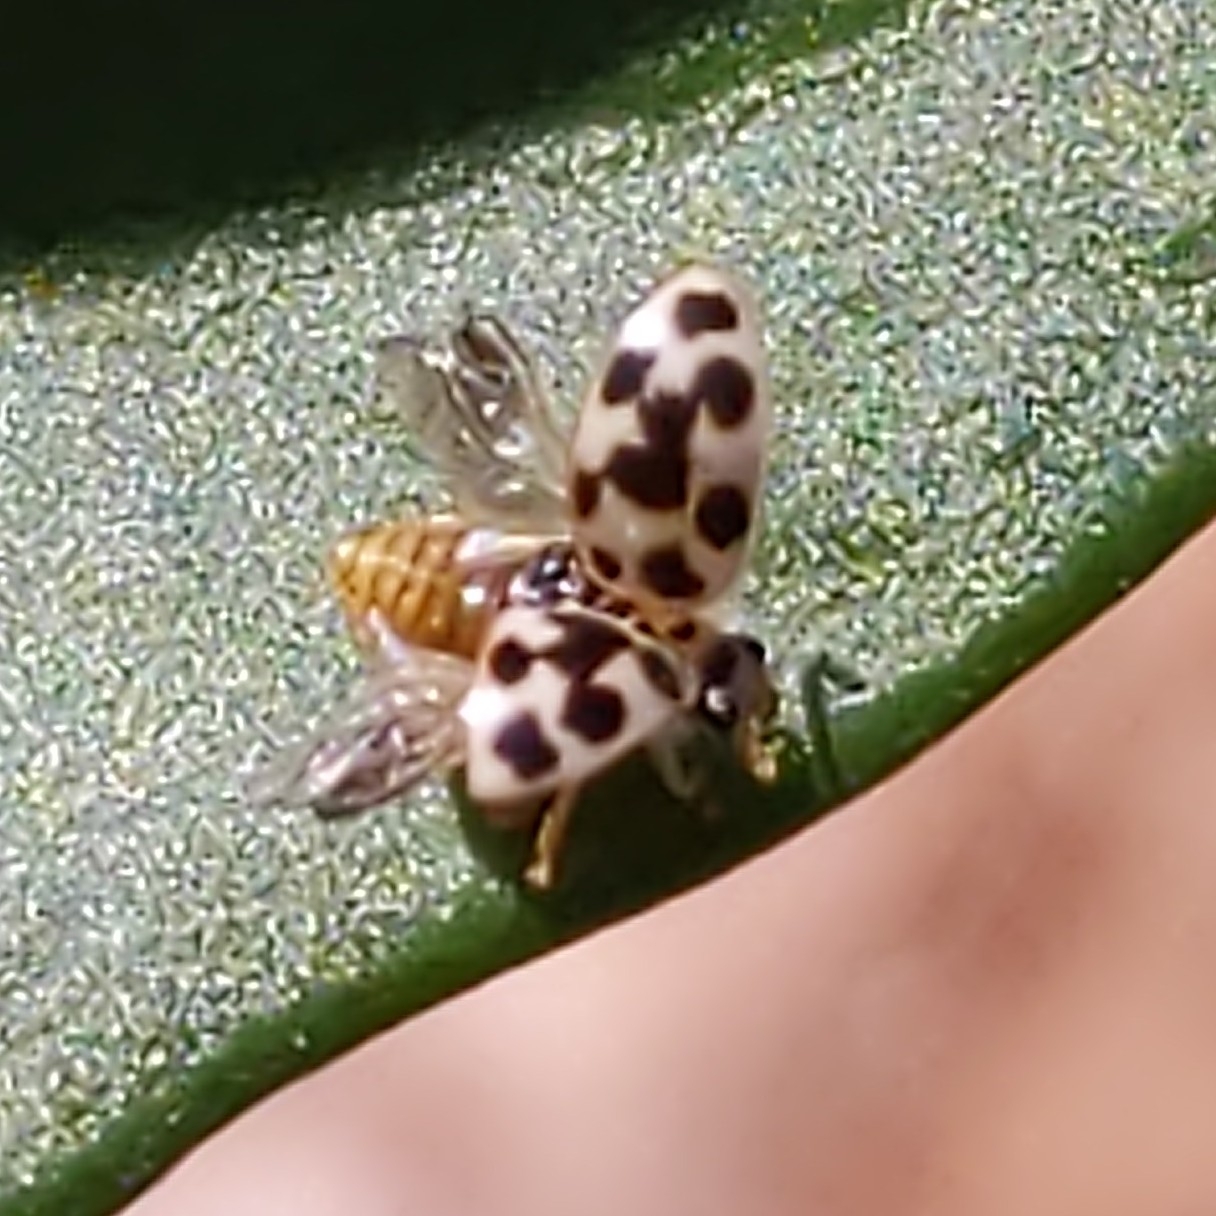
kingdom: Animalia
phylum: Arthropoda
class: Insecta
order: Coleoptera
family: Coccinellidae
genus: Psyllobora
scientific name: Psyllobora vigintimaculata
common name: Ladybird beetle
